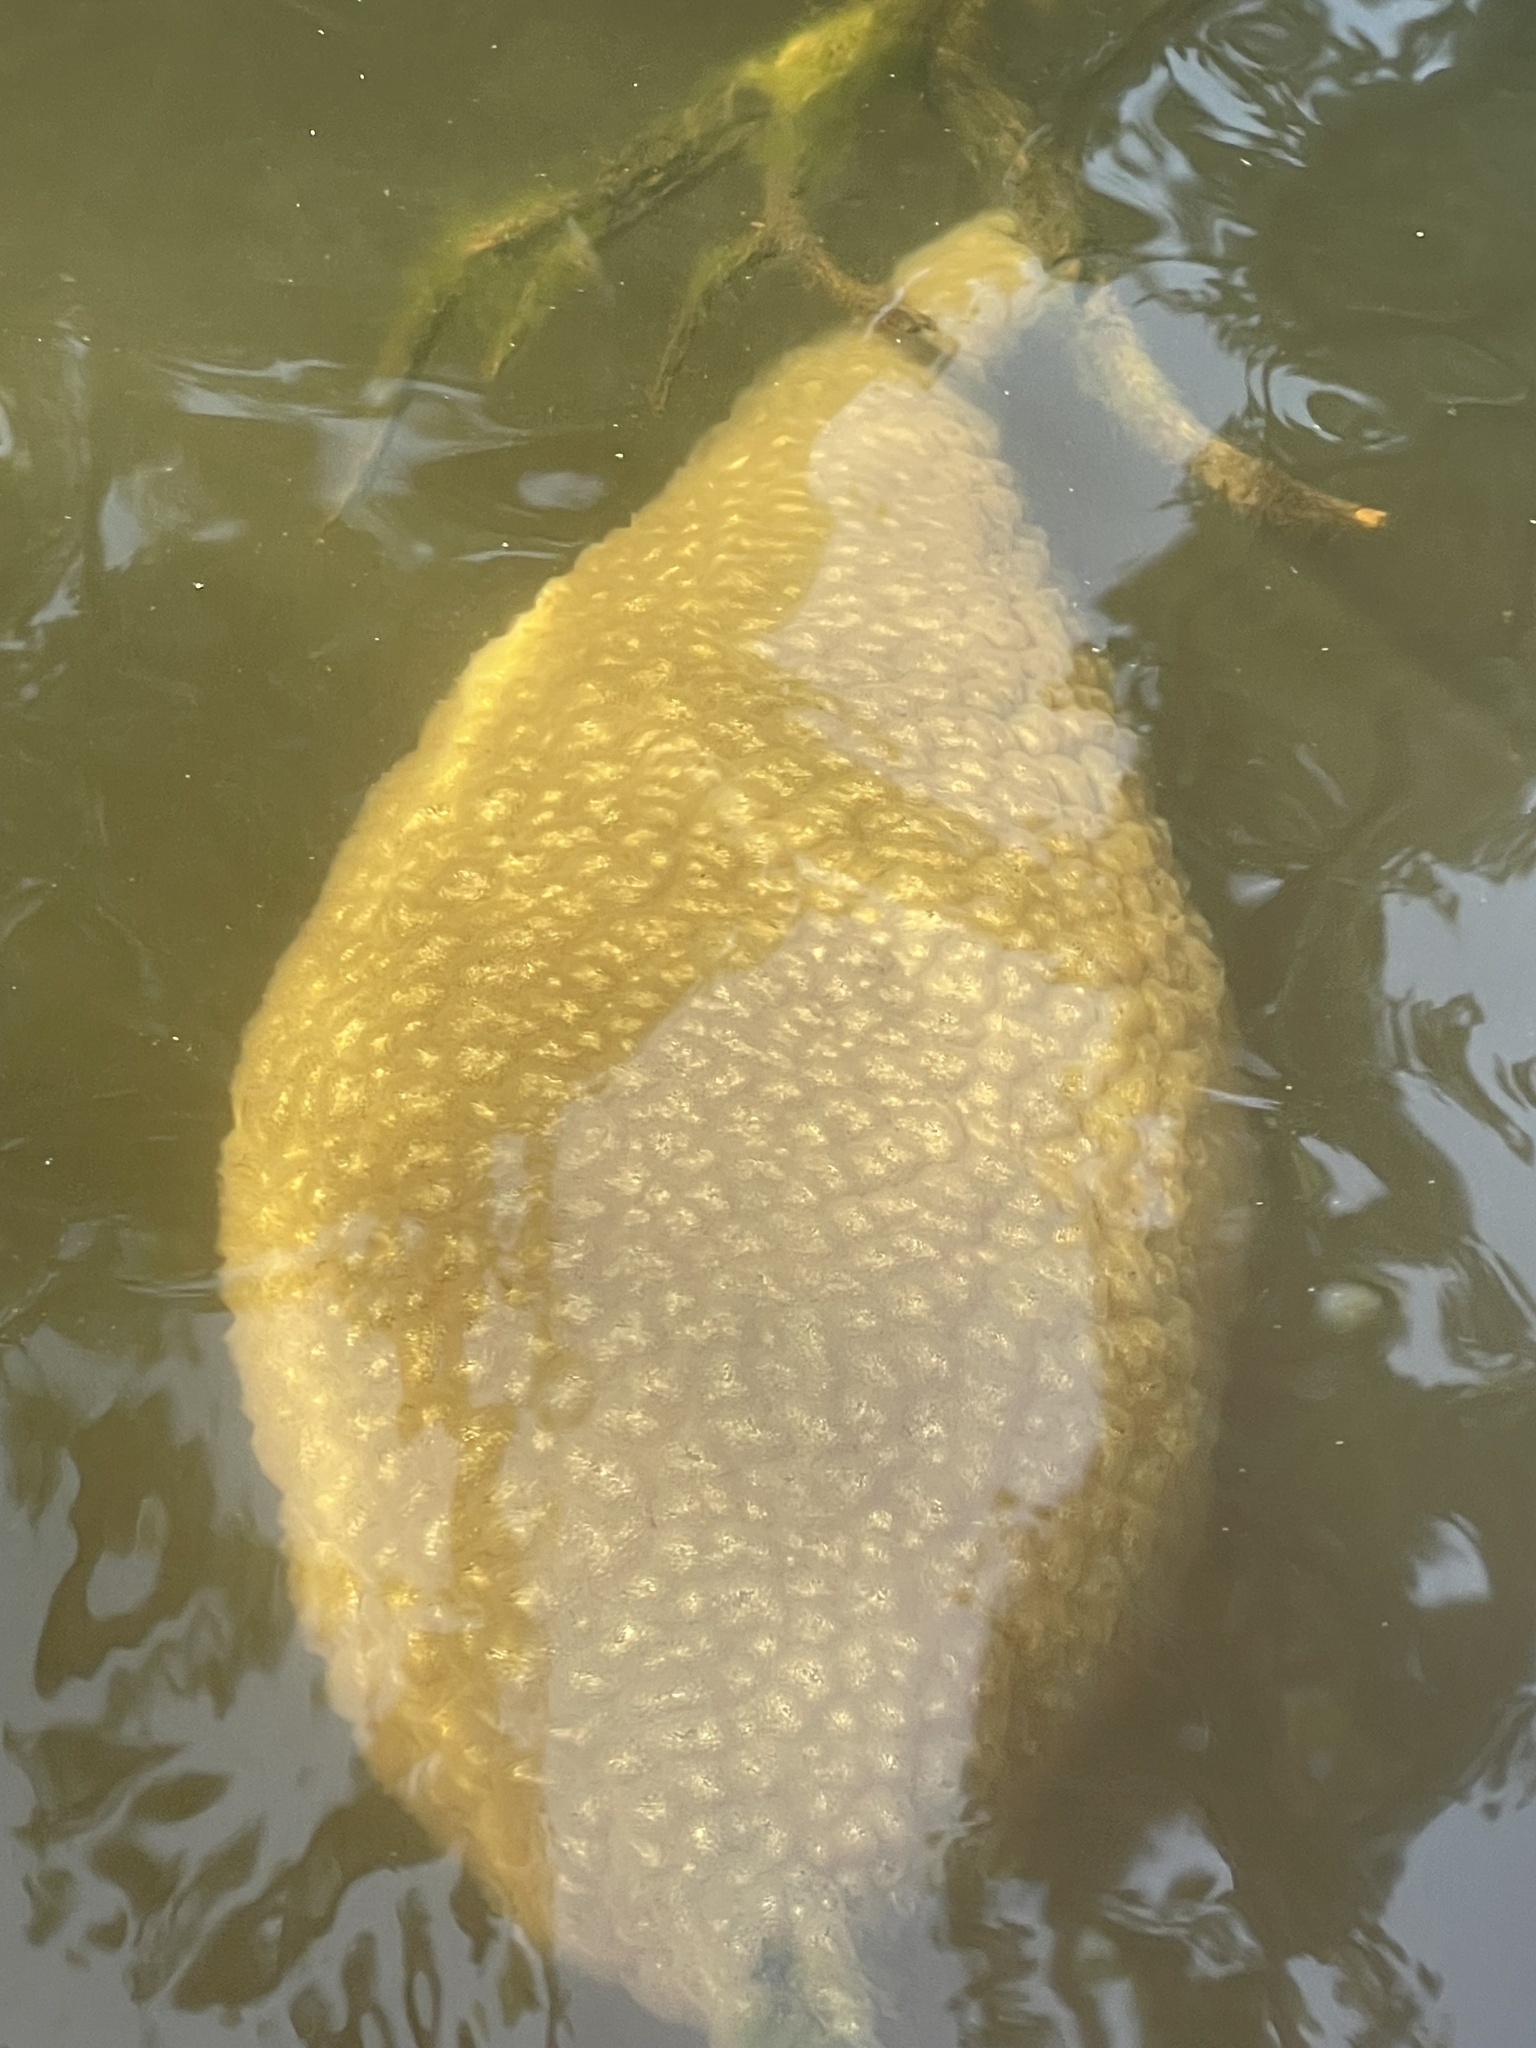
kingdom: Animalia
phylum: Bryozoa
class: Phylactolaemata
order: Plumatellida
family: Pectinatellidae
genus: Pectinatella
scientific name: Pectinatella magnifica
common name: Magnificent bryozoan
